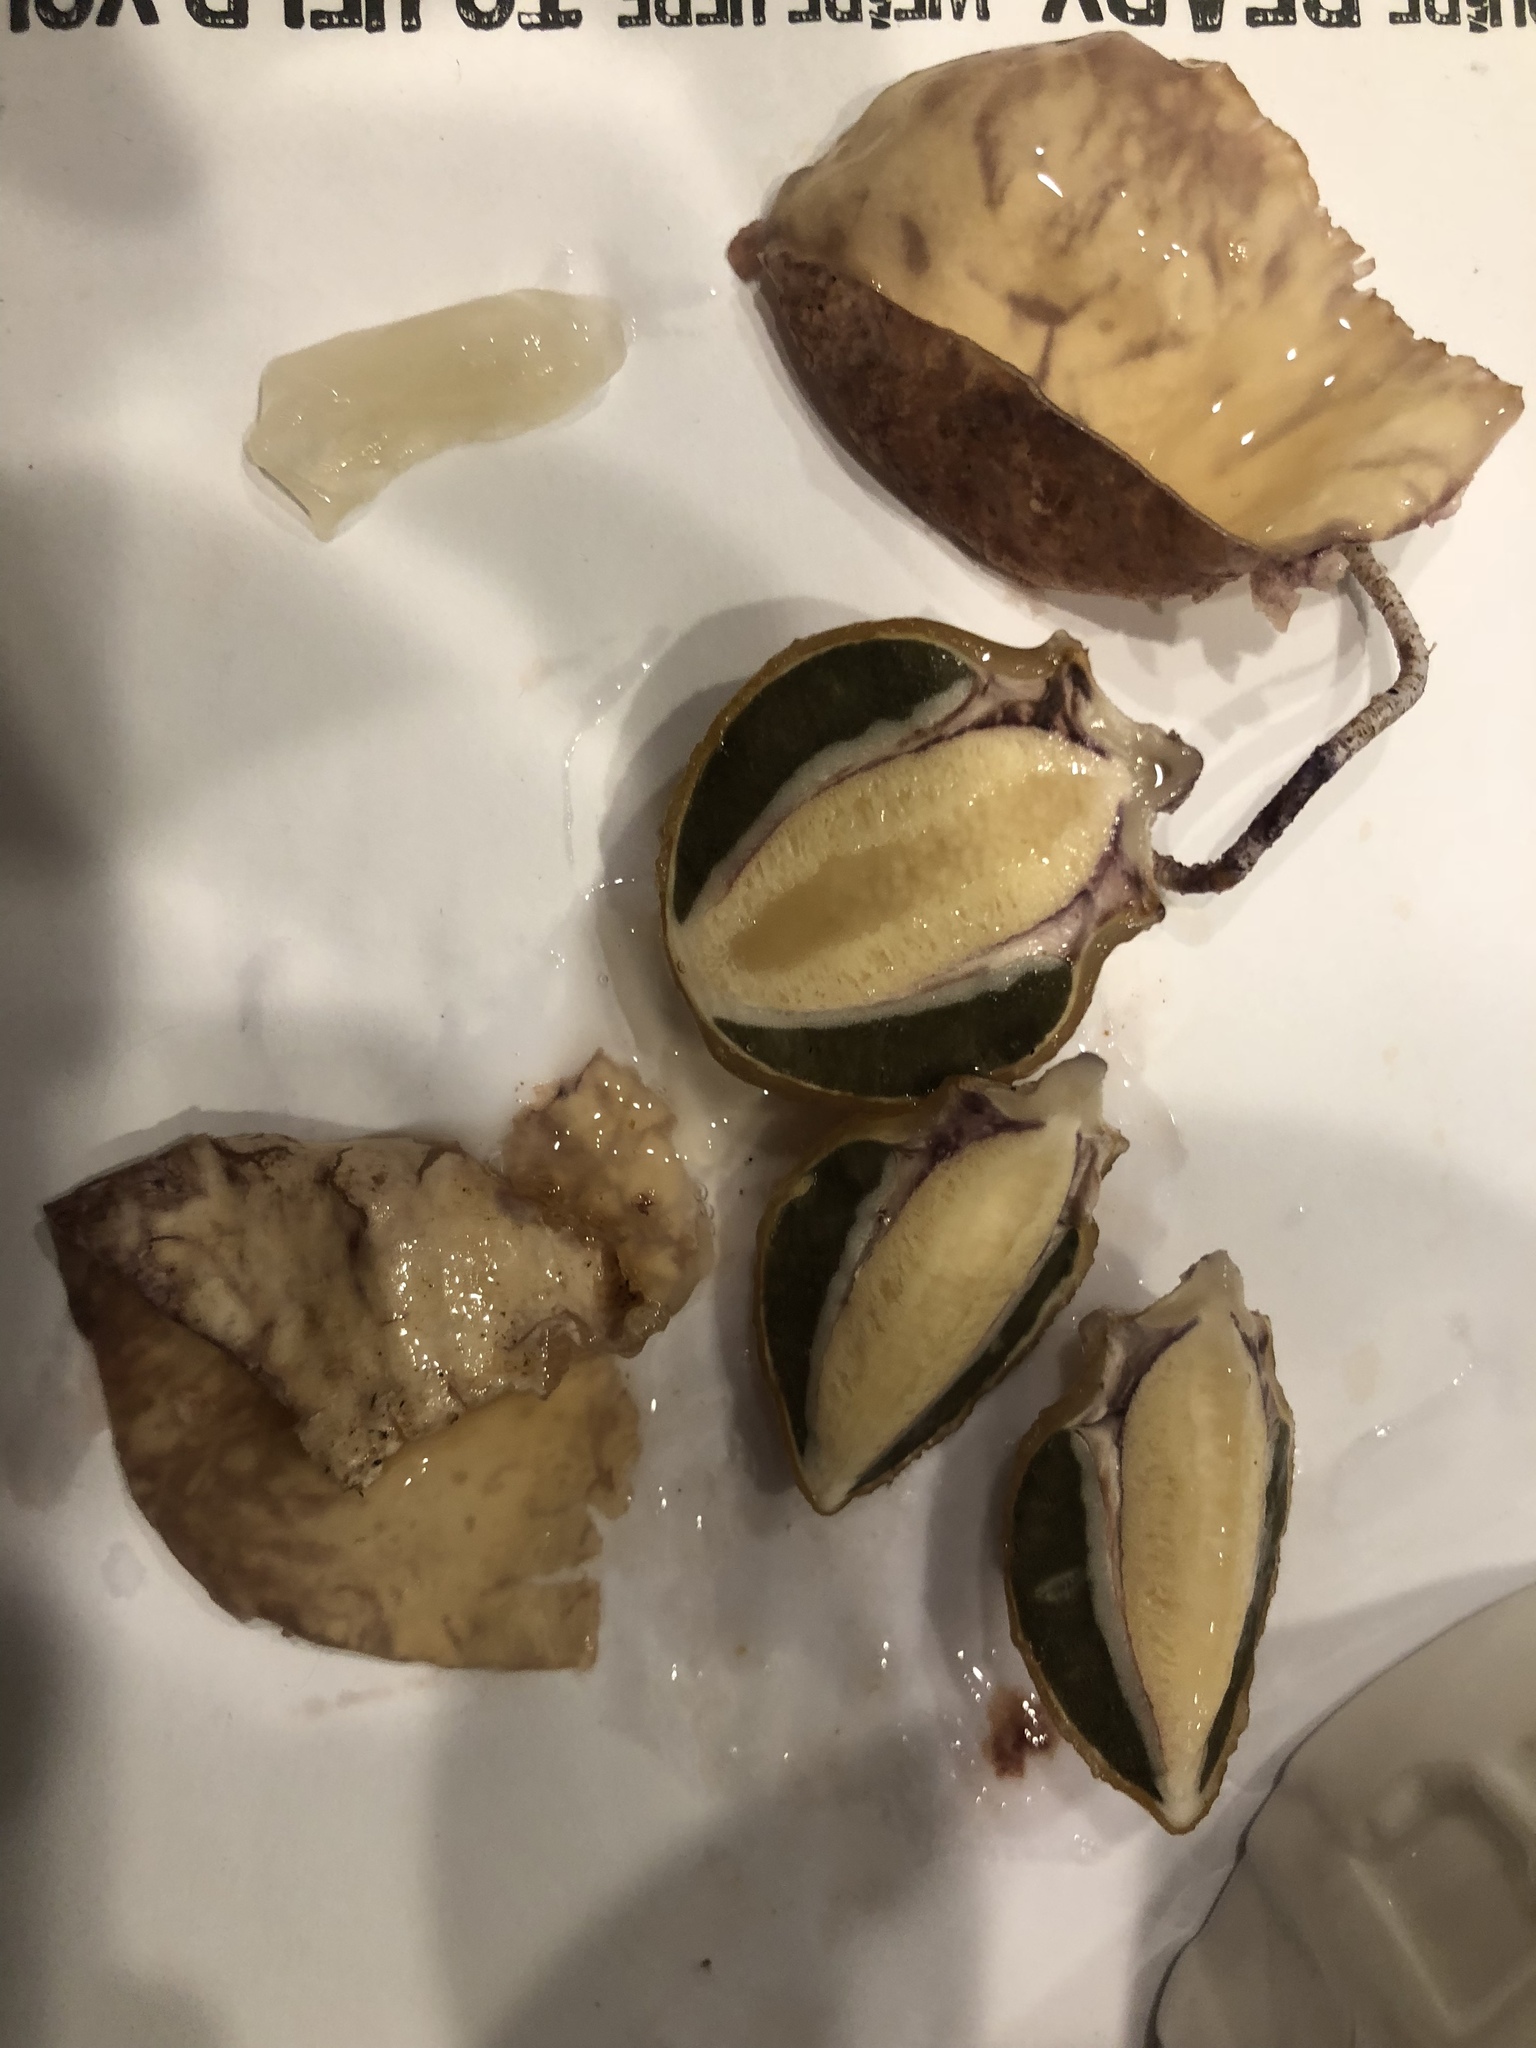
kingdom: Fungi
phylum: Basidiomycota
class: Agaricomycetes
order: Phallales
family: Phallaceae
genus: Phallus
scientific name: Phallus ravenelii
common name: Ravenel's stinkhorn
